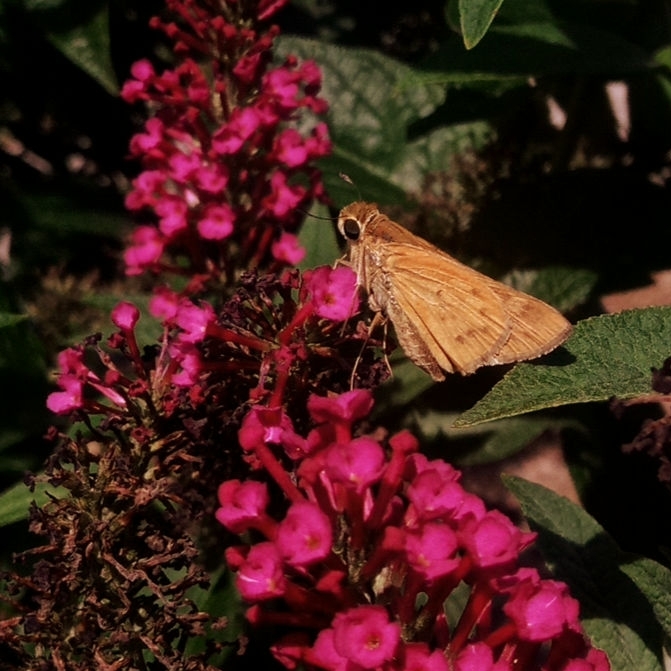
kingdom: Animalia
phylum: Arthropoda
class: Insecta
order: Lepidoptera
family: Hesperiidae
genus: Hylephila
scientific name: Hylephila phyleus
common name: Fiery skipper
